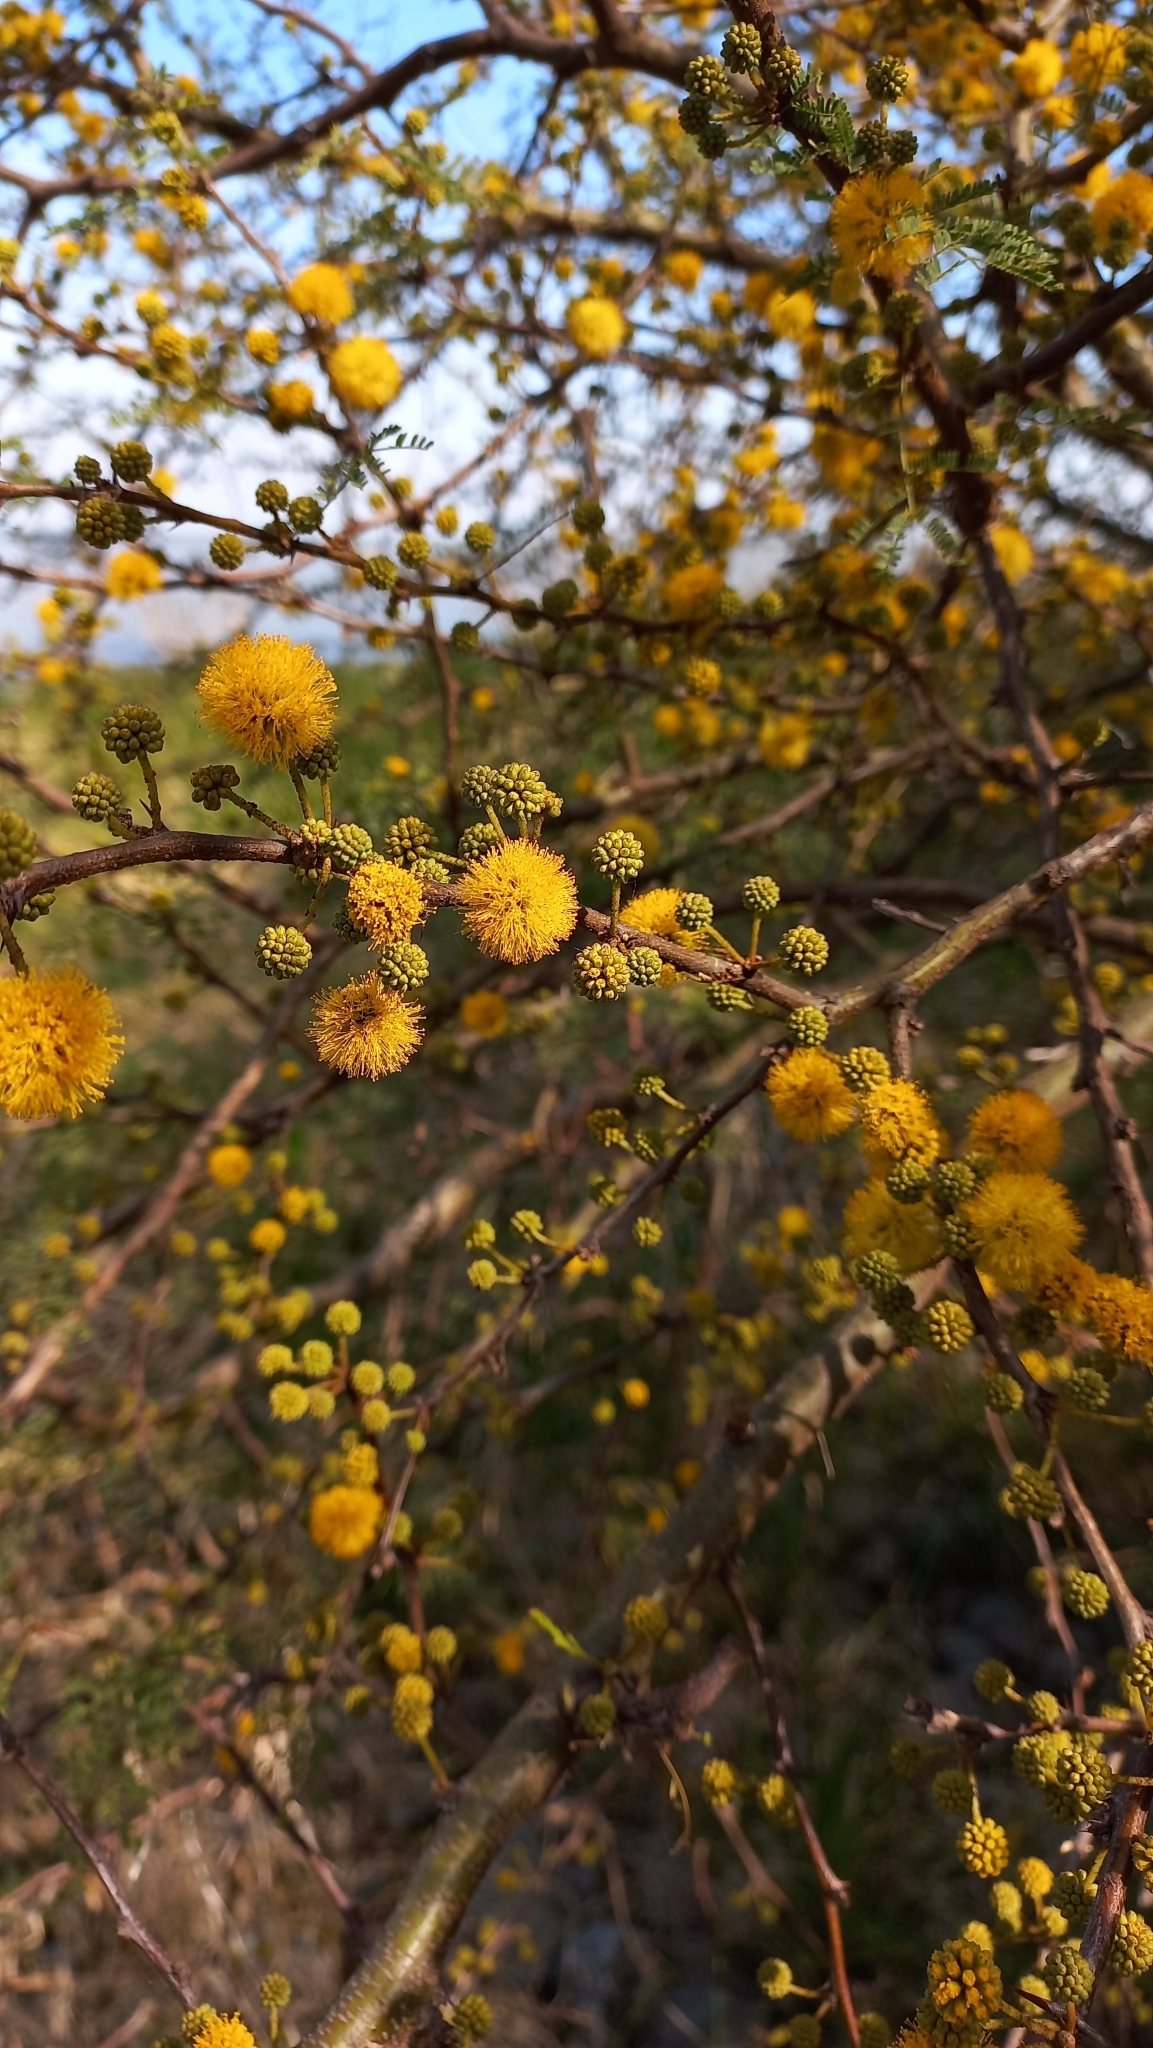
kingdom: Plantae
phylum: Tracheophyta
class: Magnoliopsida
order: Fabales
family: Fabaceae
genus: Vachellia
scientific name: Vachellia caven
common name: Roman cassie
